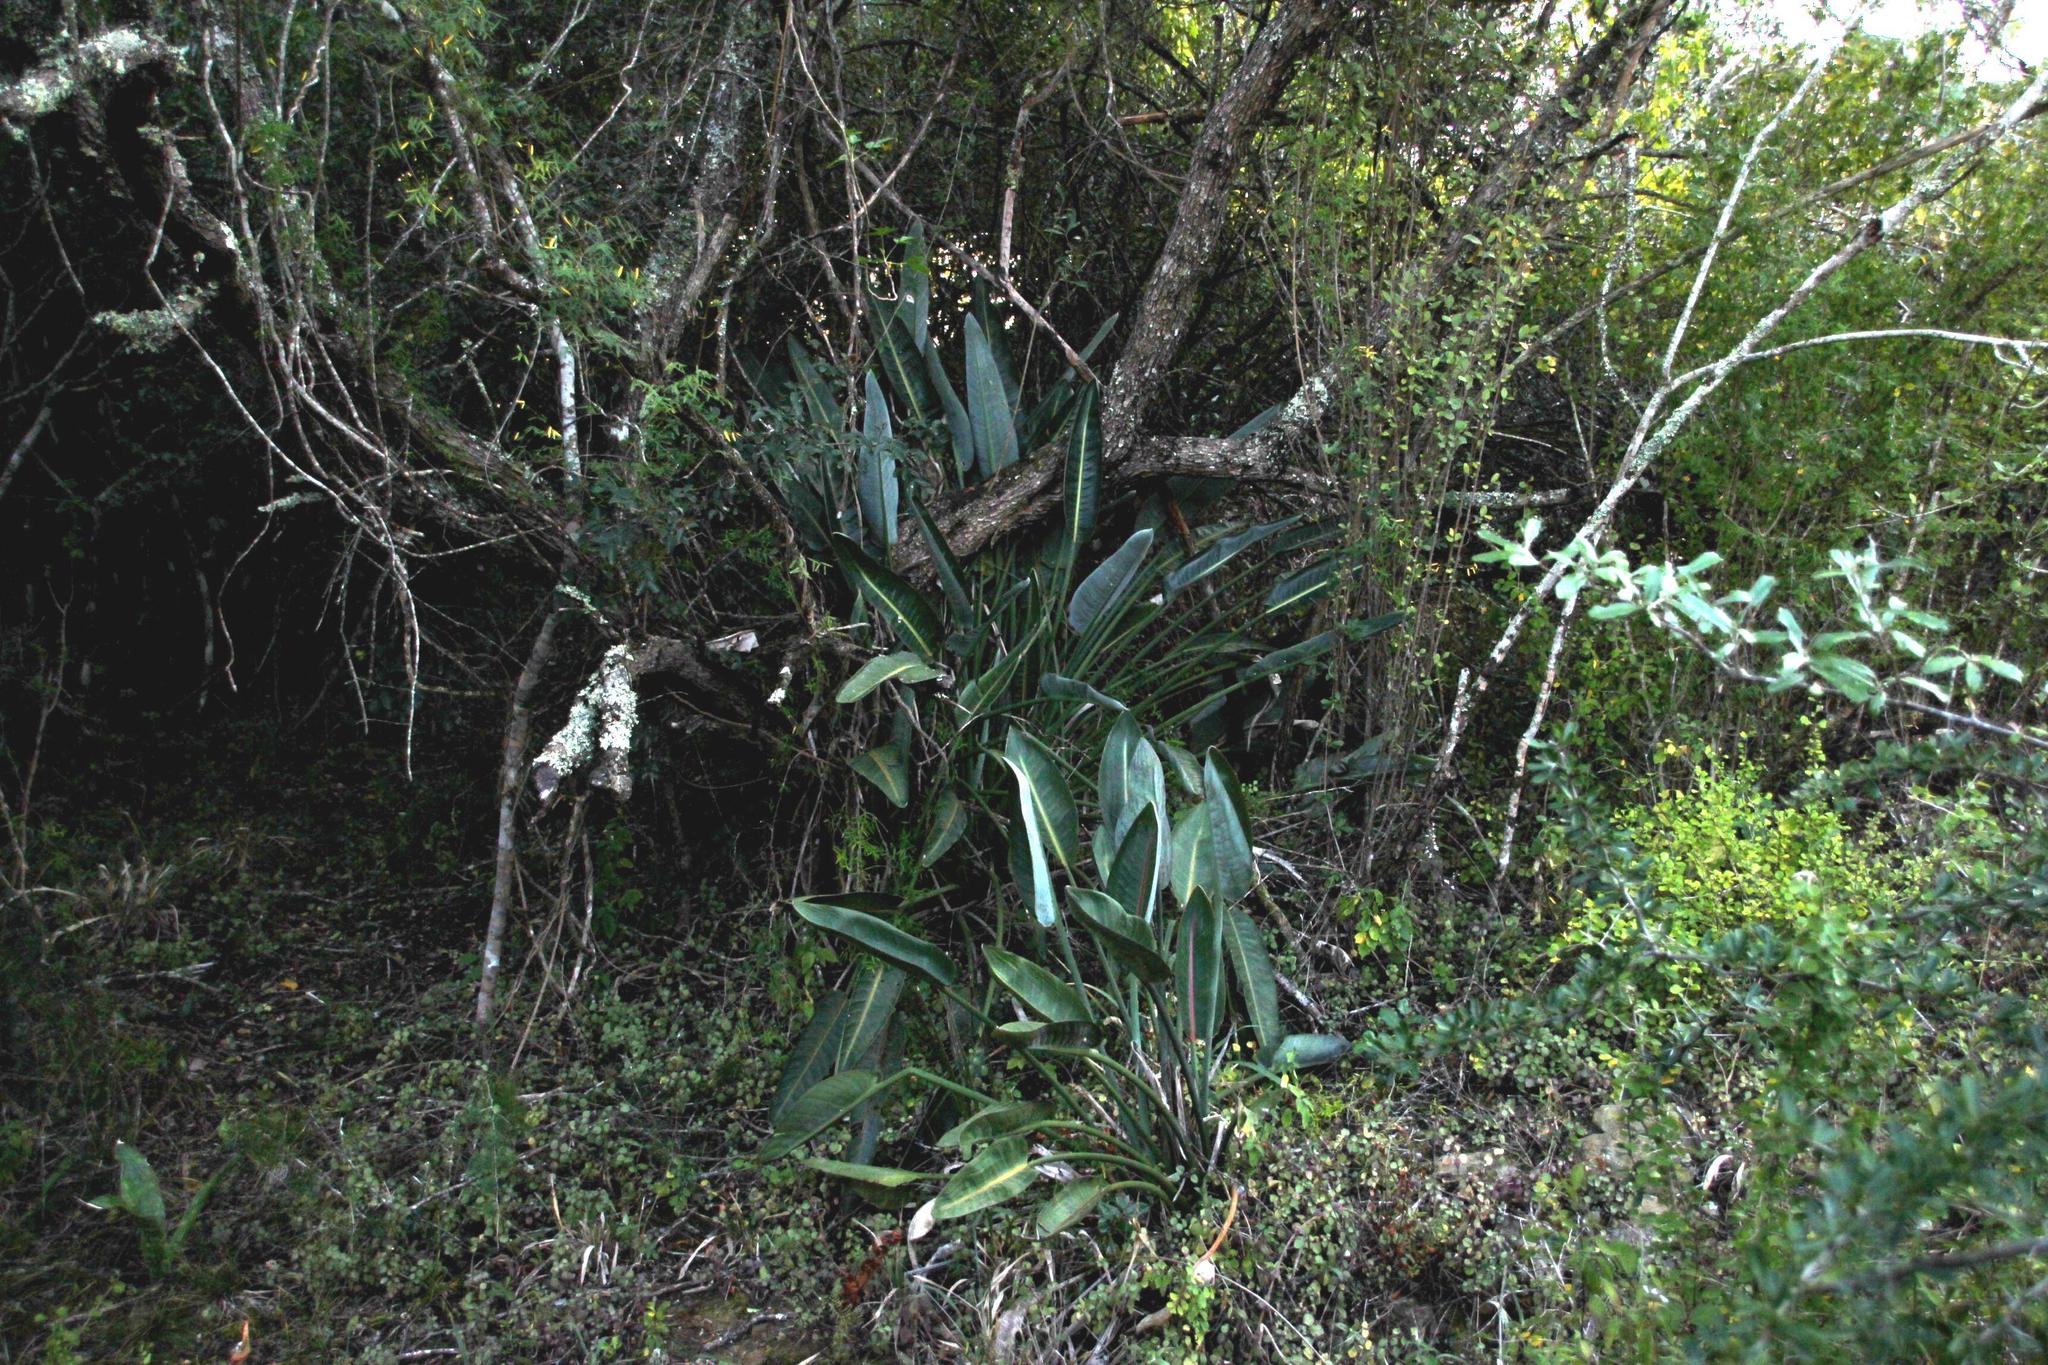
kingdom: Plantae
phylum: Tracheophyta
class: Liliopsida
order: Zingiberales
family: Strelitziaceae
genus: Strelitzia
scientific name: Strelitzia reginae
